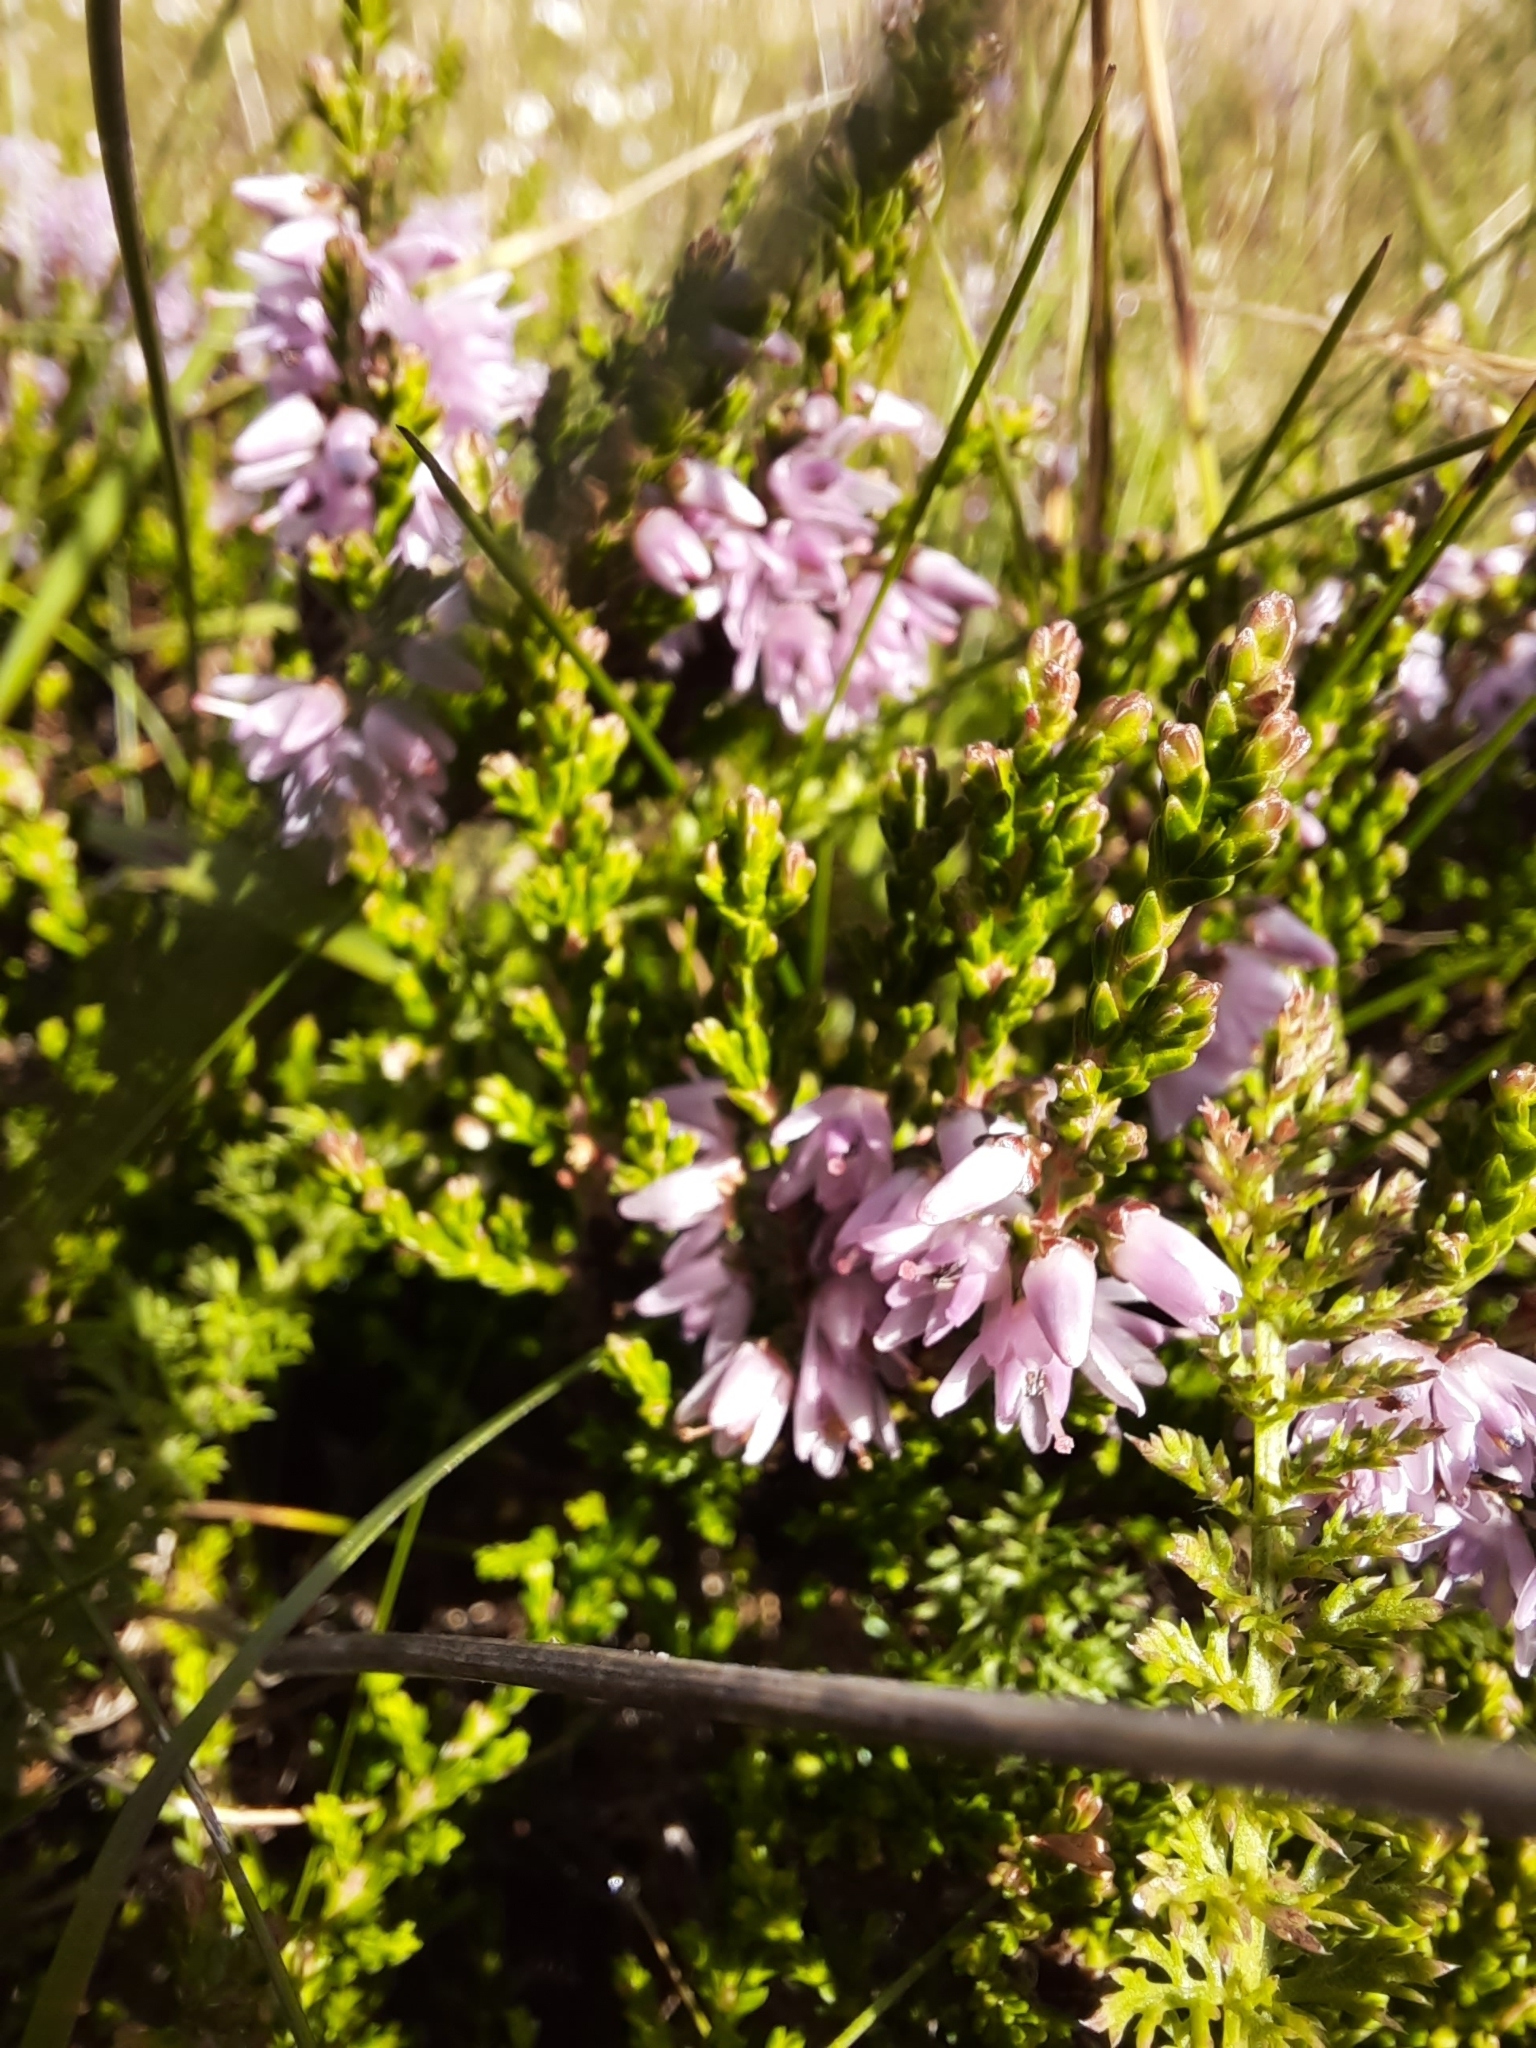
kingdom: Plantae
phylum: Tracheophyta
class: Magnoliopsida
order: Ericales
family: Ericaceae
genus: Calluna
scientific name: Calluna vulgaris
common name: Heather
